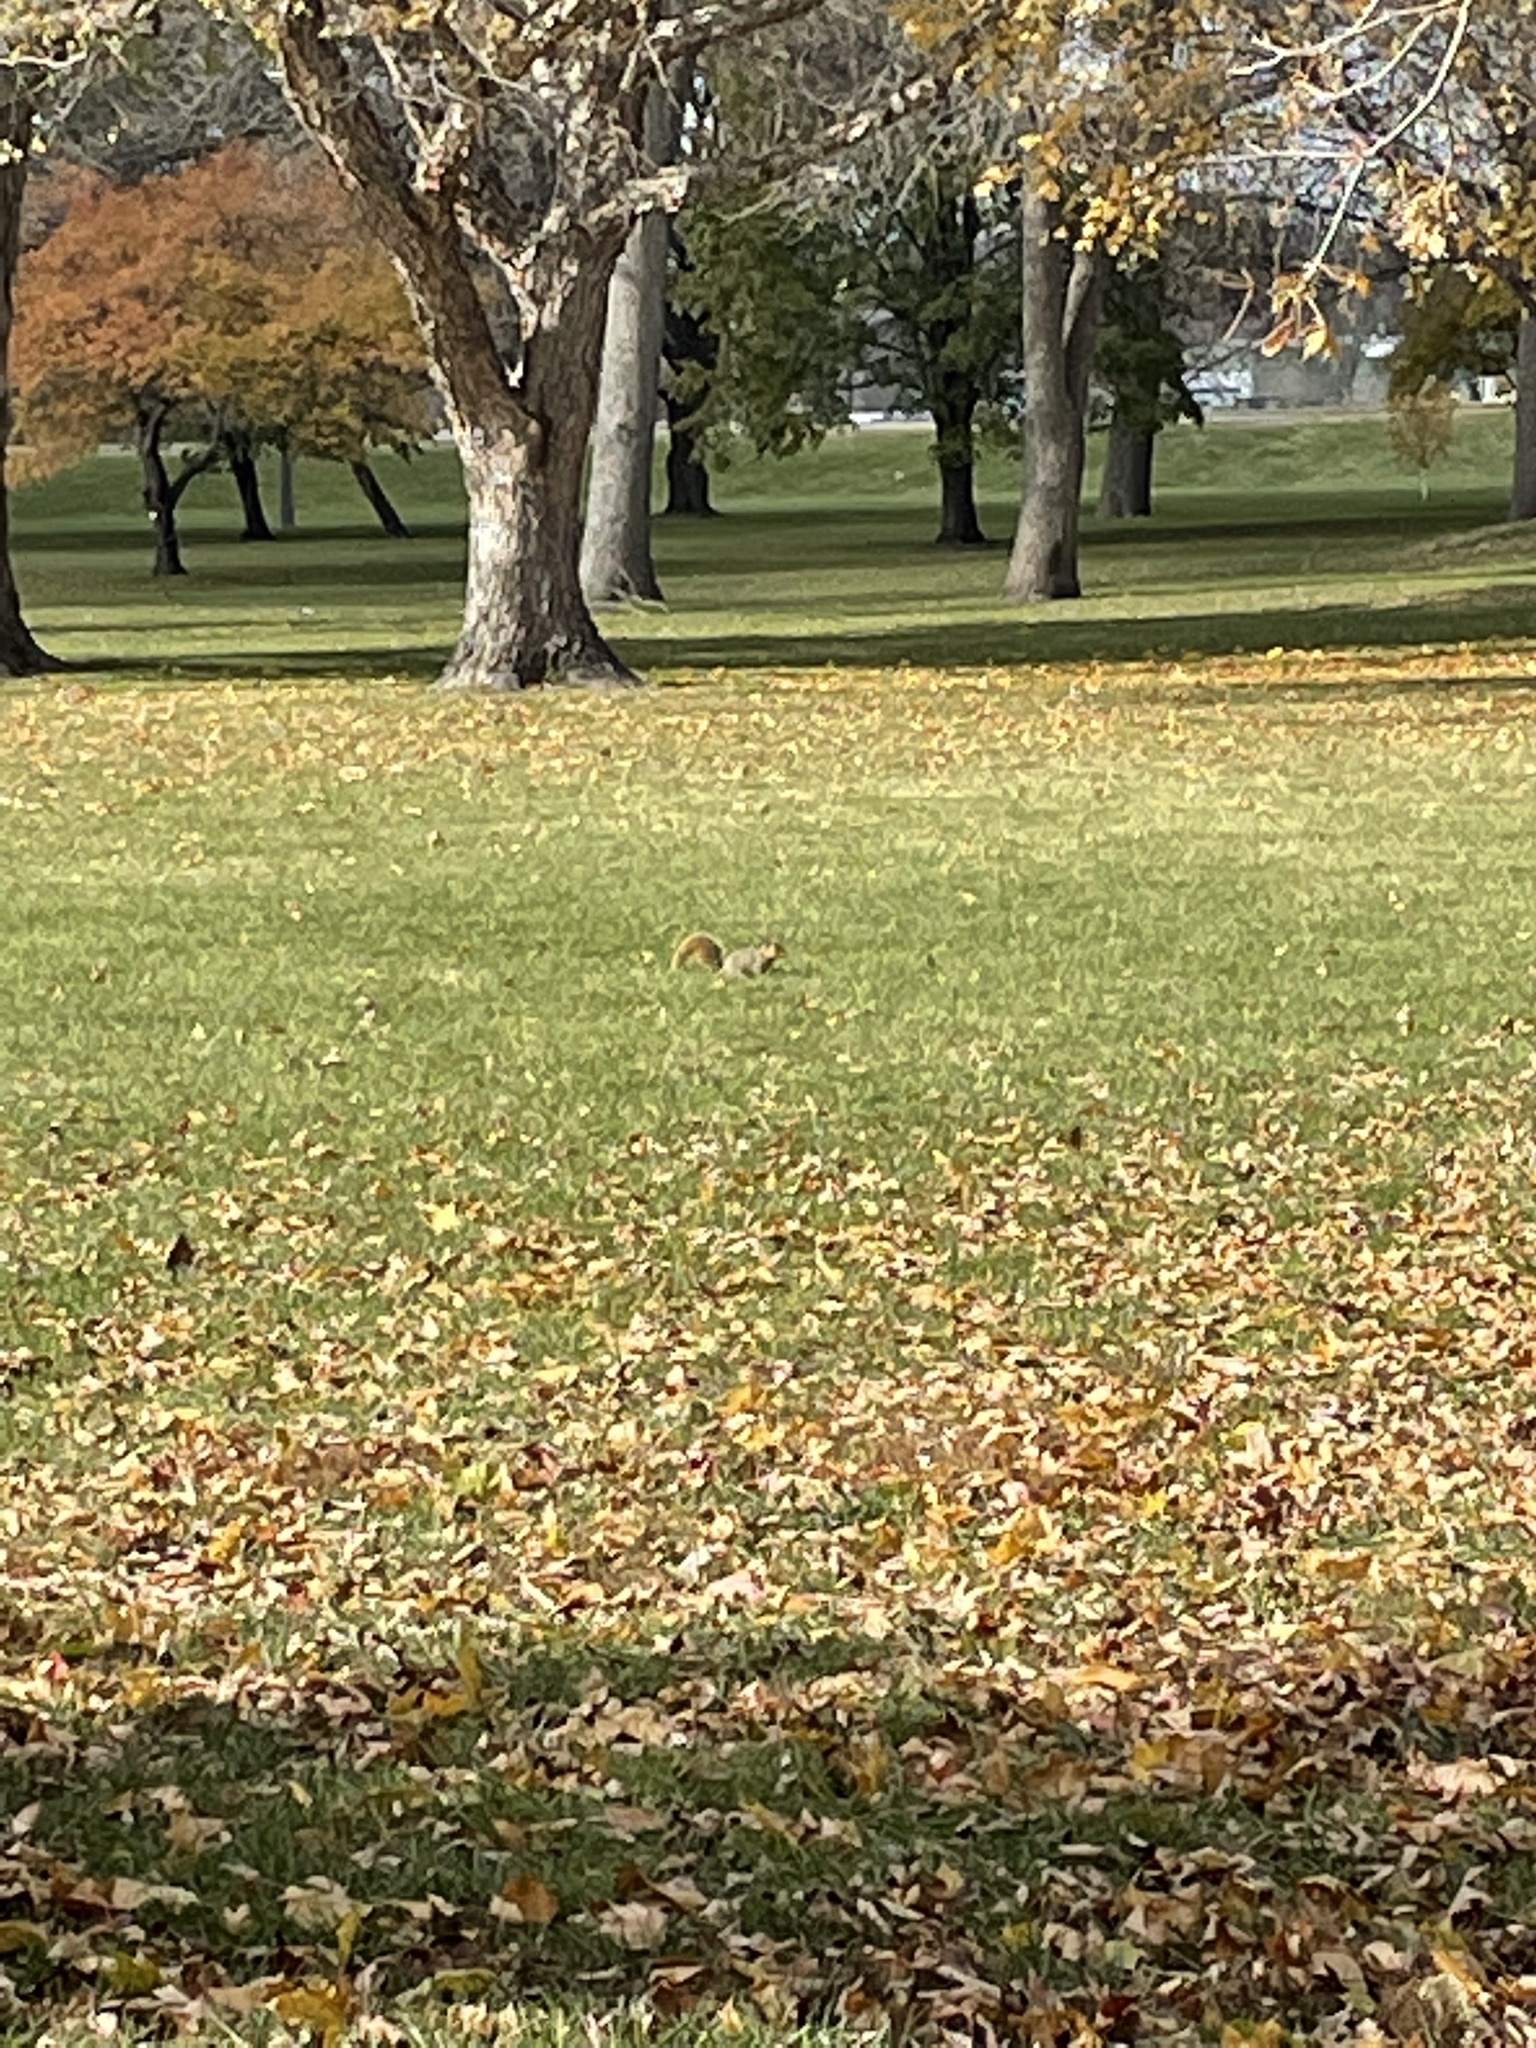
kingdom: Animalia
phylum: Chordata
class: Mammalia
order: Rodentia
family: Sciuridae
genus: Sciurus
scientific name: Sciurus niger
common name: Fox squirrel
